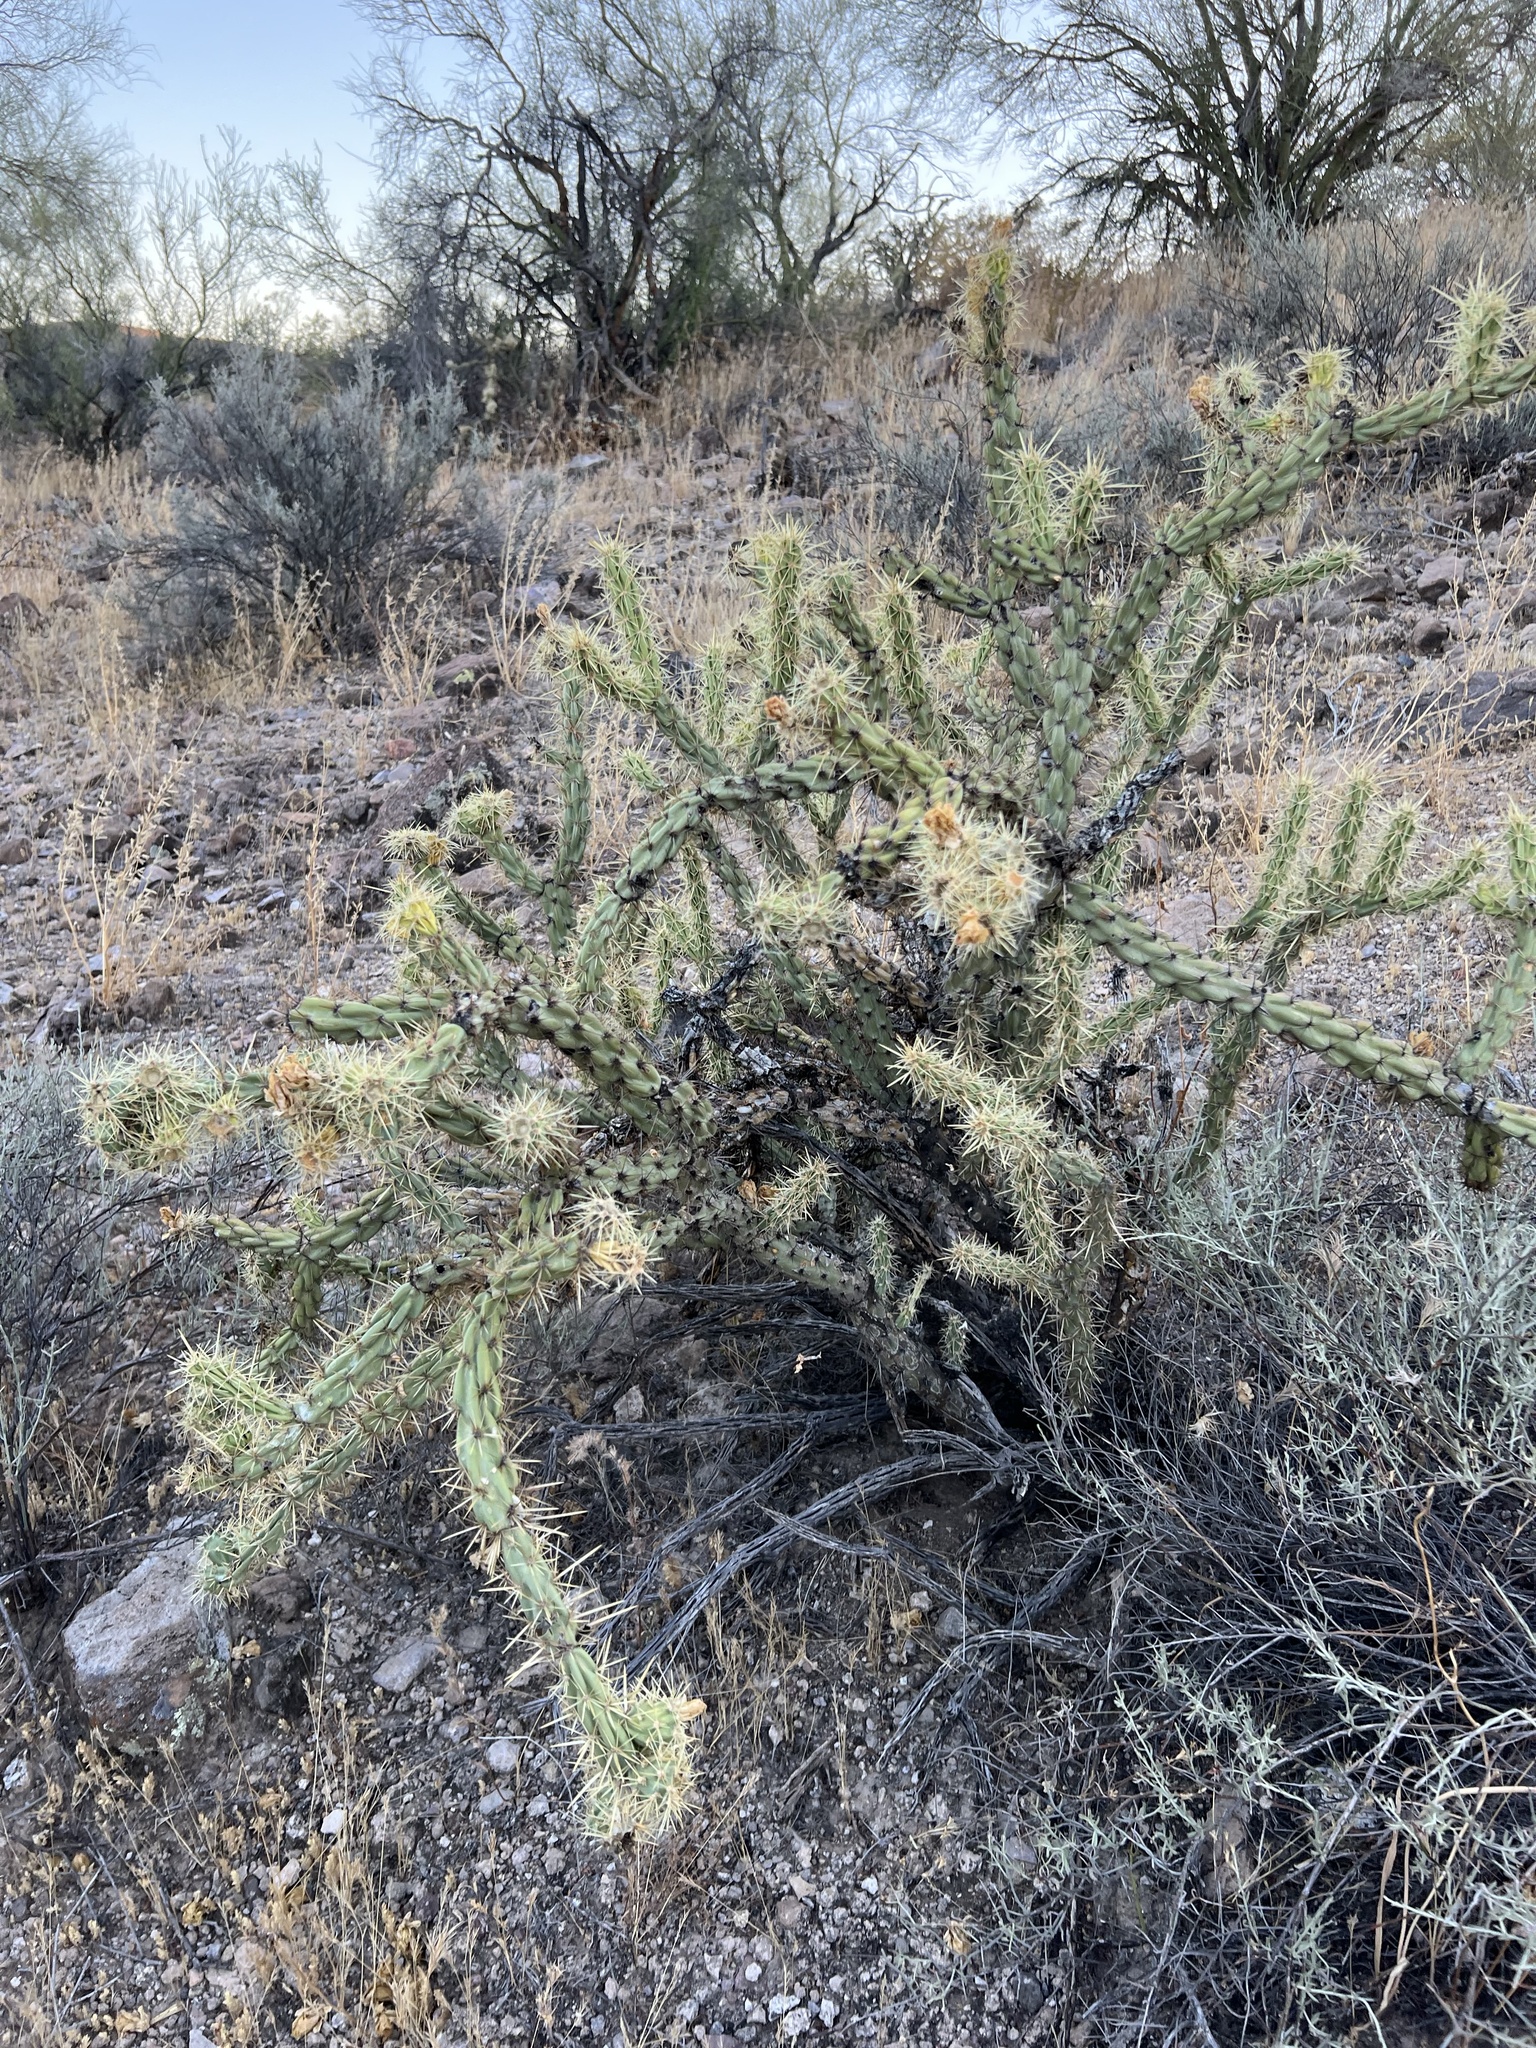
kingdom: Plantae
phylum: Tracheophyta
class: Magnoliopsida
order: Caryophyllales
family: Cactaceae
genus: Cylindropuntia
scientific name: Cylindropuntia acanthocarpa
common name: Buckhorn cholla
